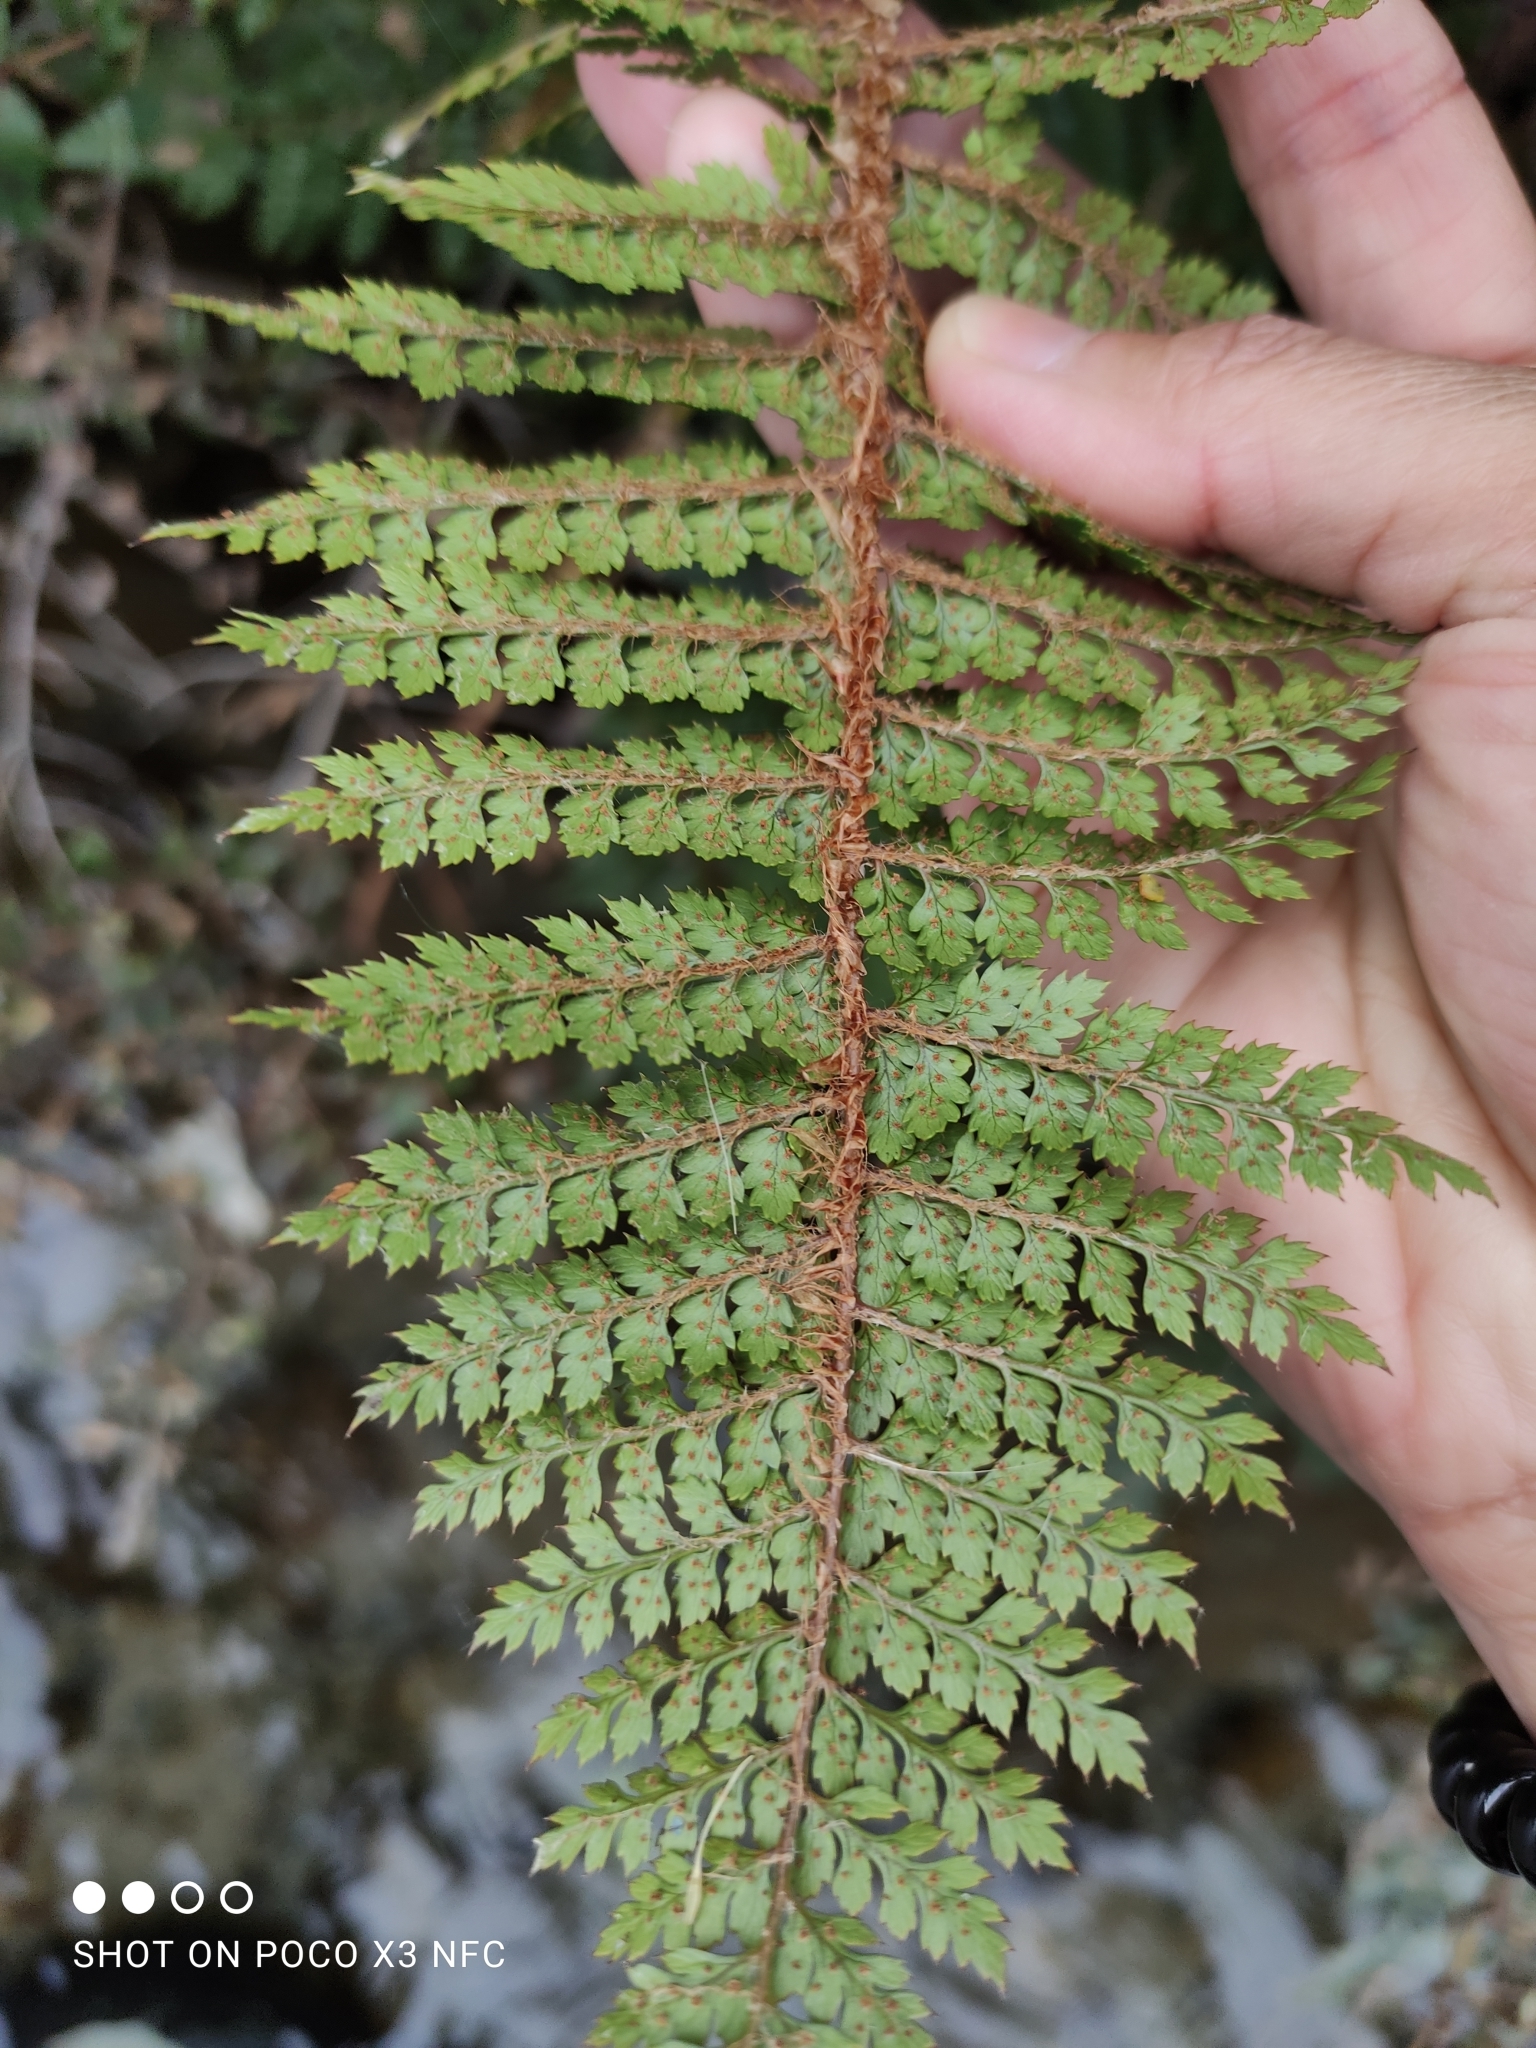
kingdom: Plantae
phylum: Tracheophyta
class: Polypodiopsida
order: Polypodiales
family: Dryopteridaceae
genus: Polystichum
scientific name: Polystichum vestitum
